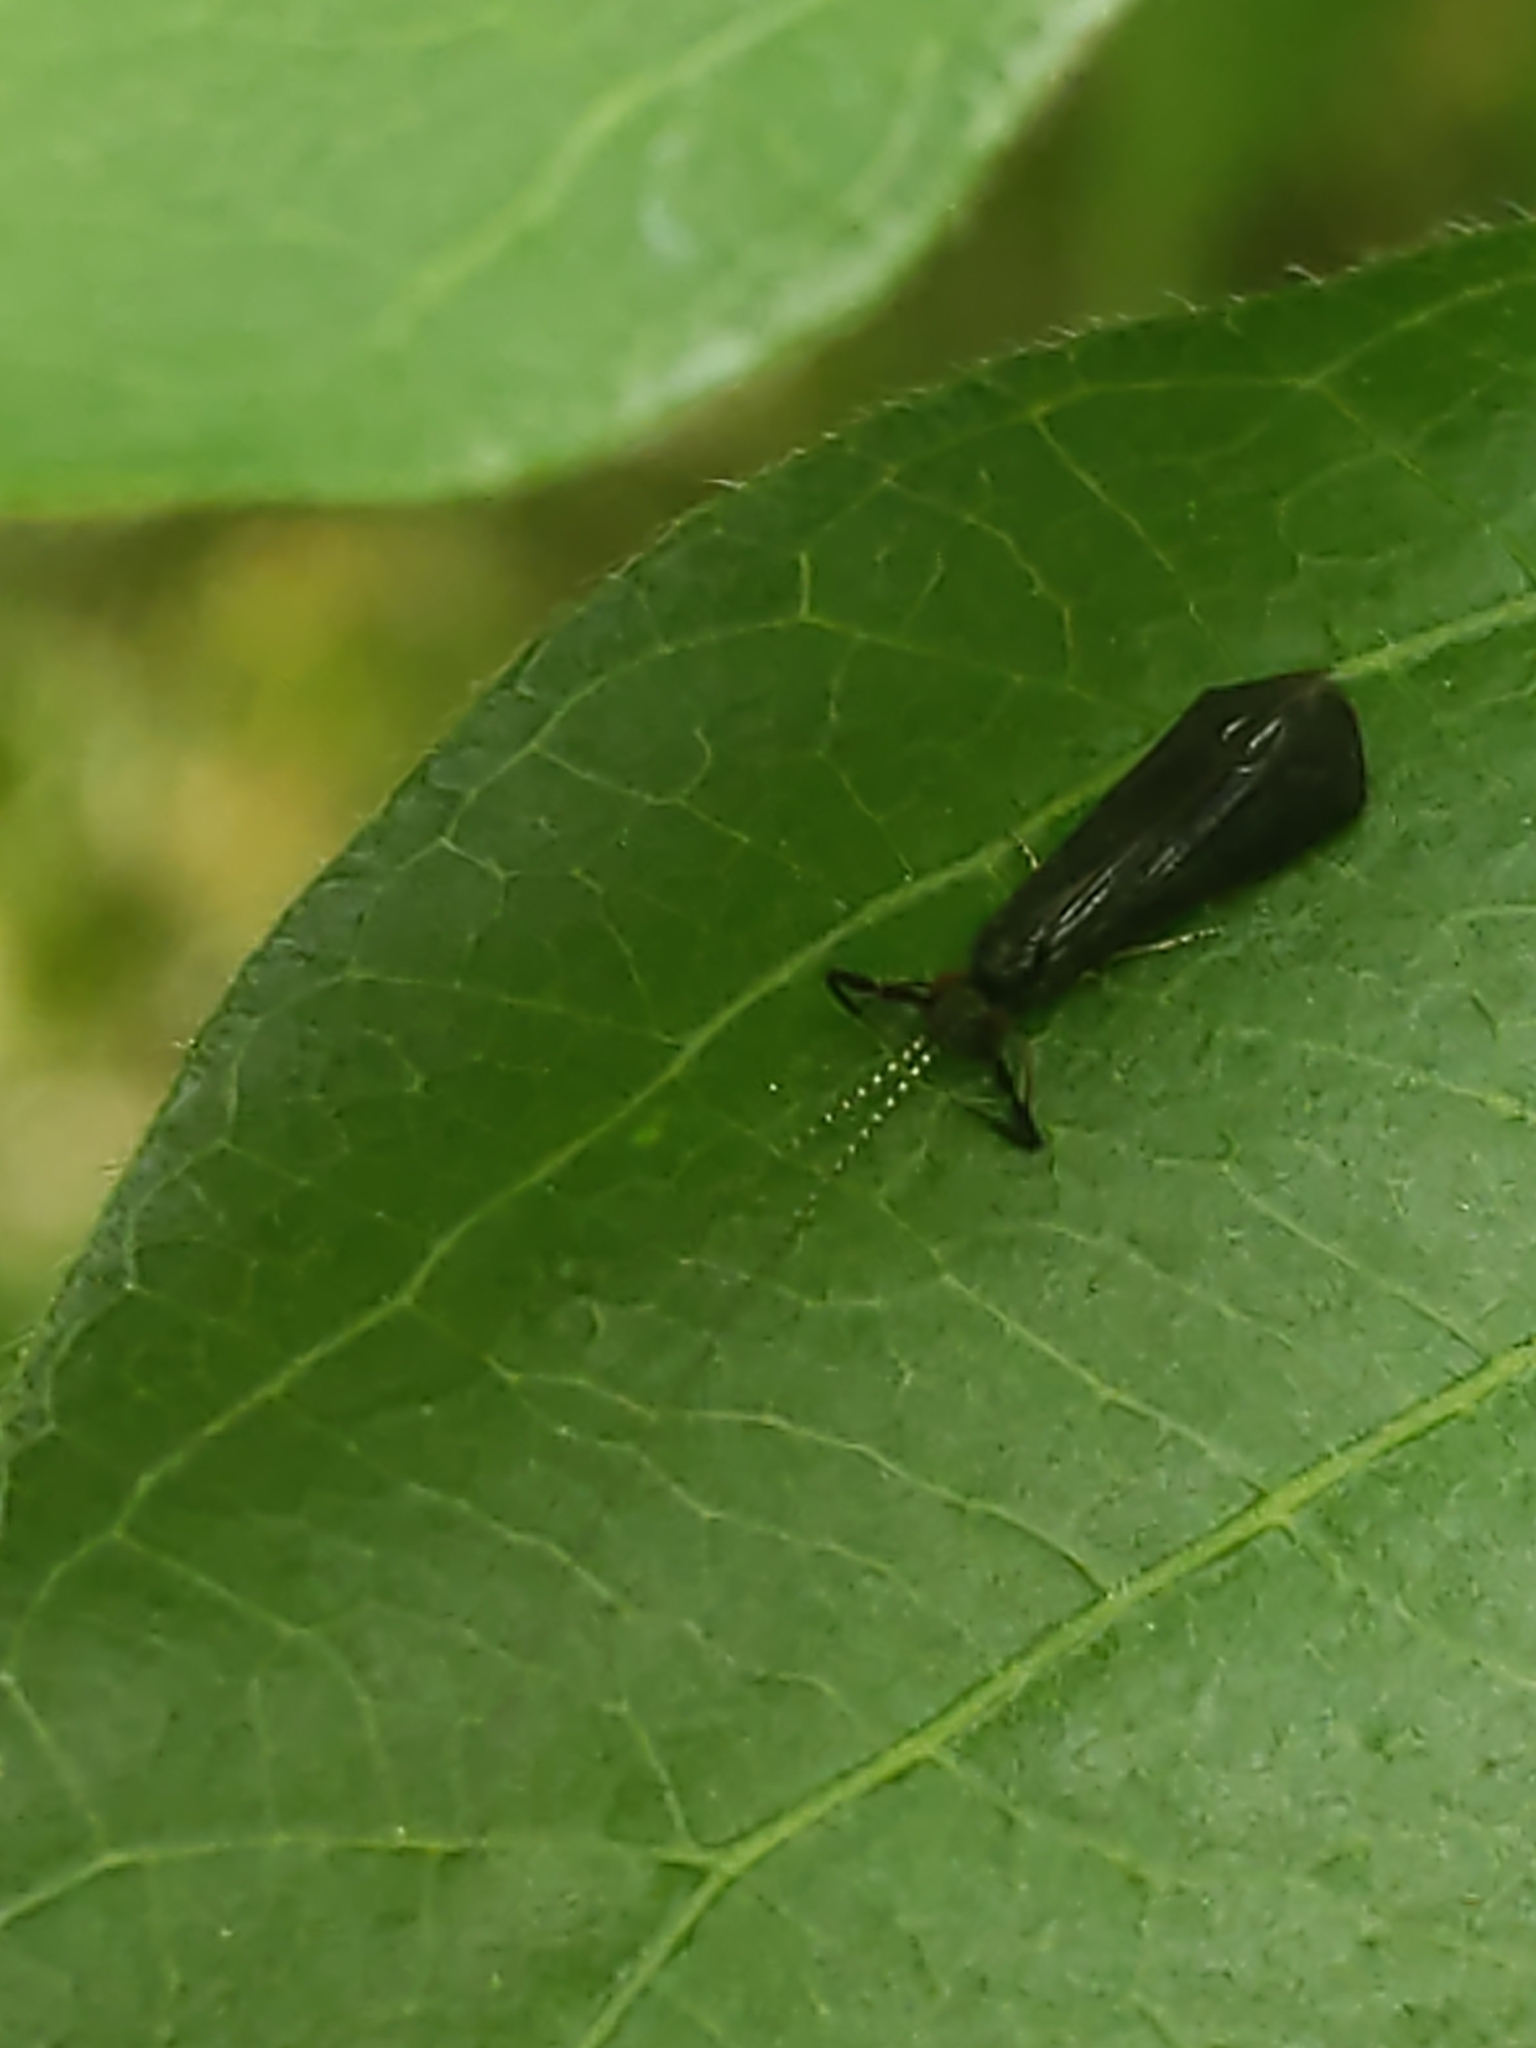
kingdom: Animalia
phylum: Arthropoda
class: Insecta
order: Trichoptera
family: Leptoceridae
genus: Mystacides
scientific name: Mystacides sepulchralis
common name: Black dancer caddisfly
